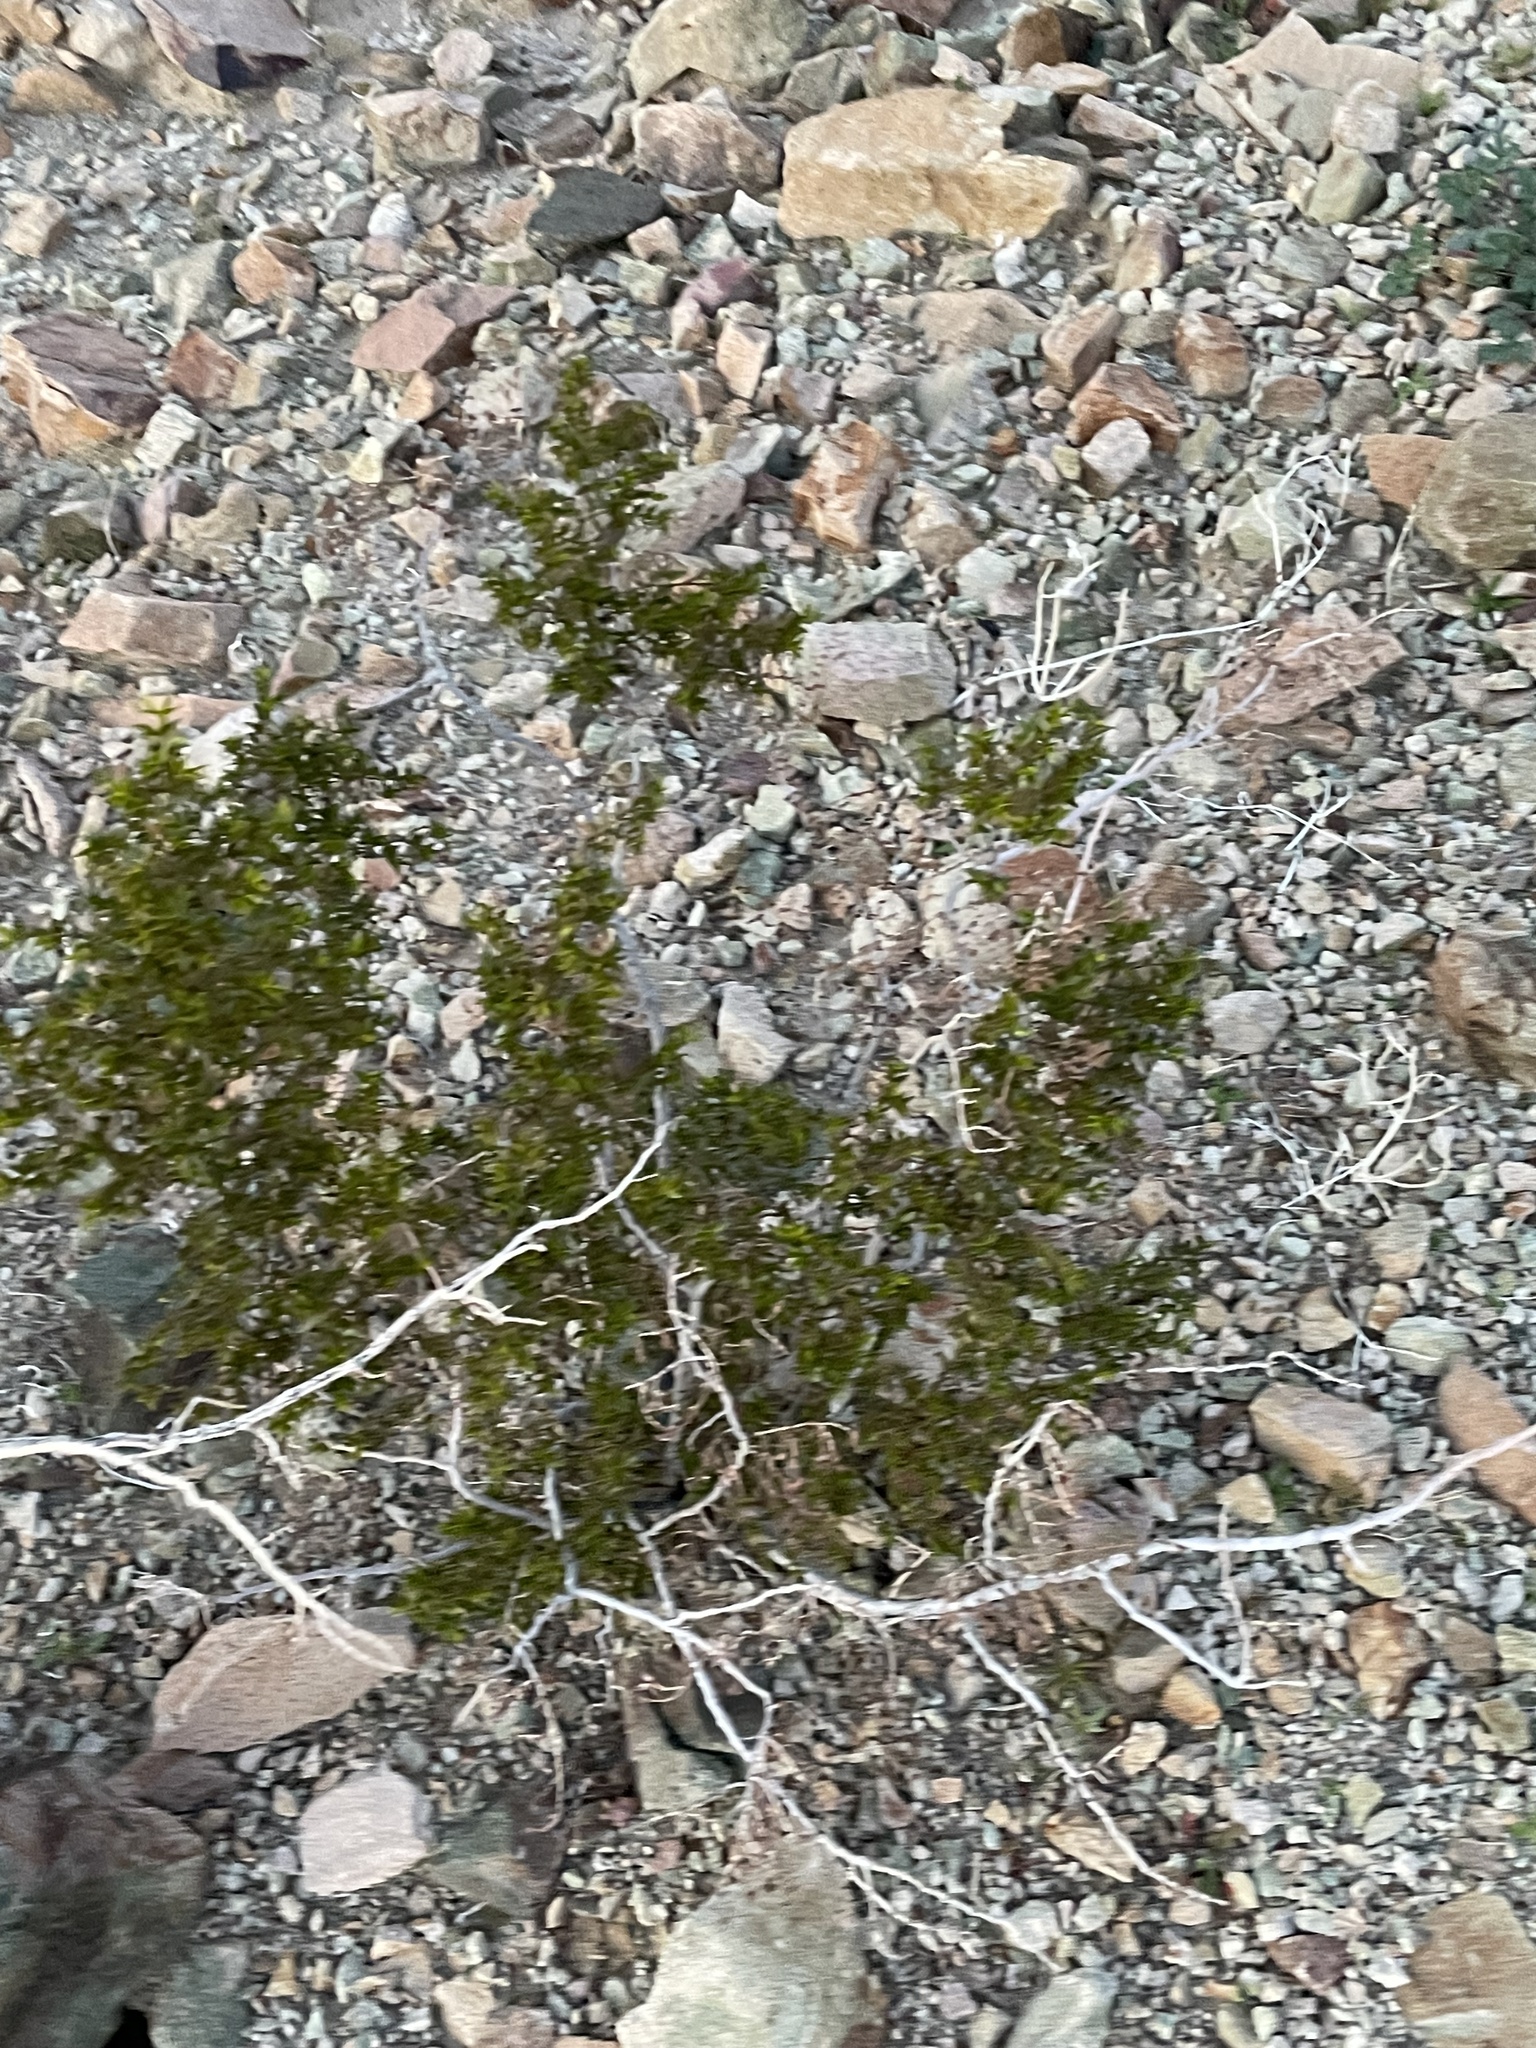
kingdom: Plantae
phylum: Tracheophyta
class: Magnoliopsida
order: Zygophyllales
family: Zygophyllaceae
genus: Larrea
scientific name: Larrea tridentata
